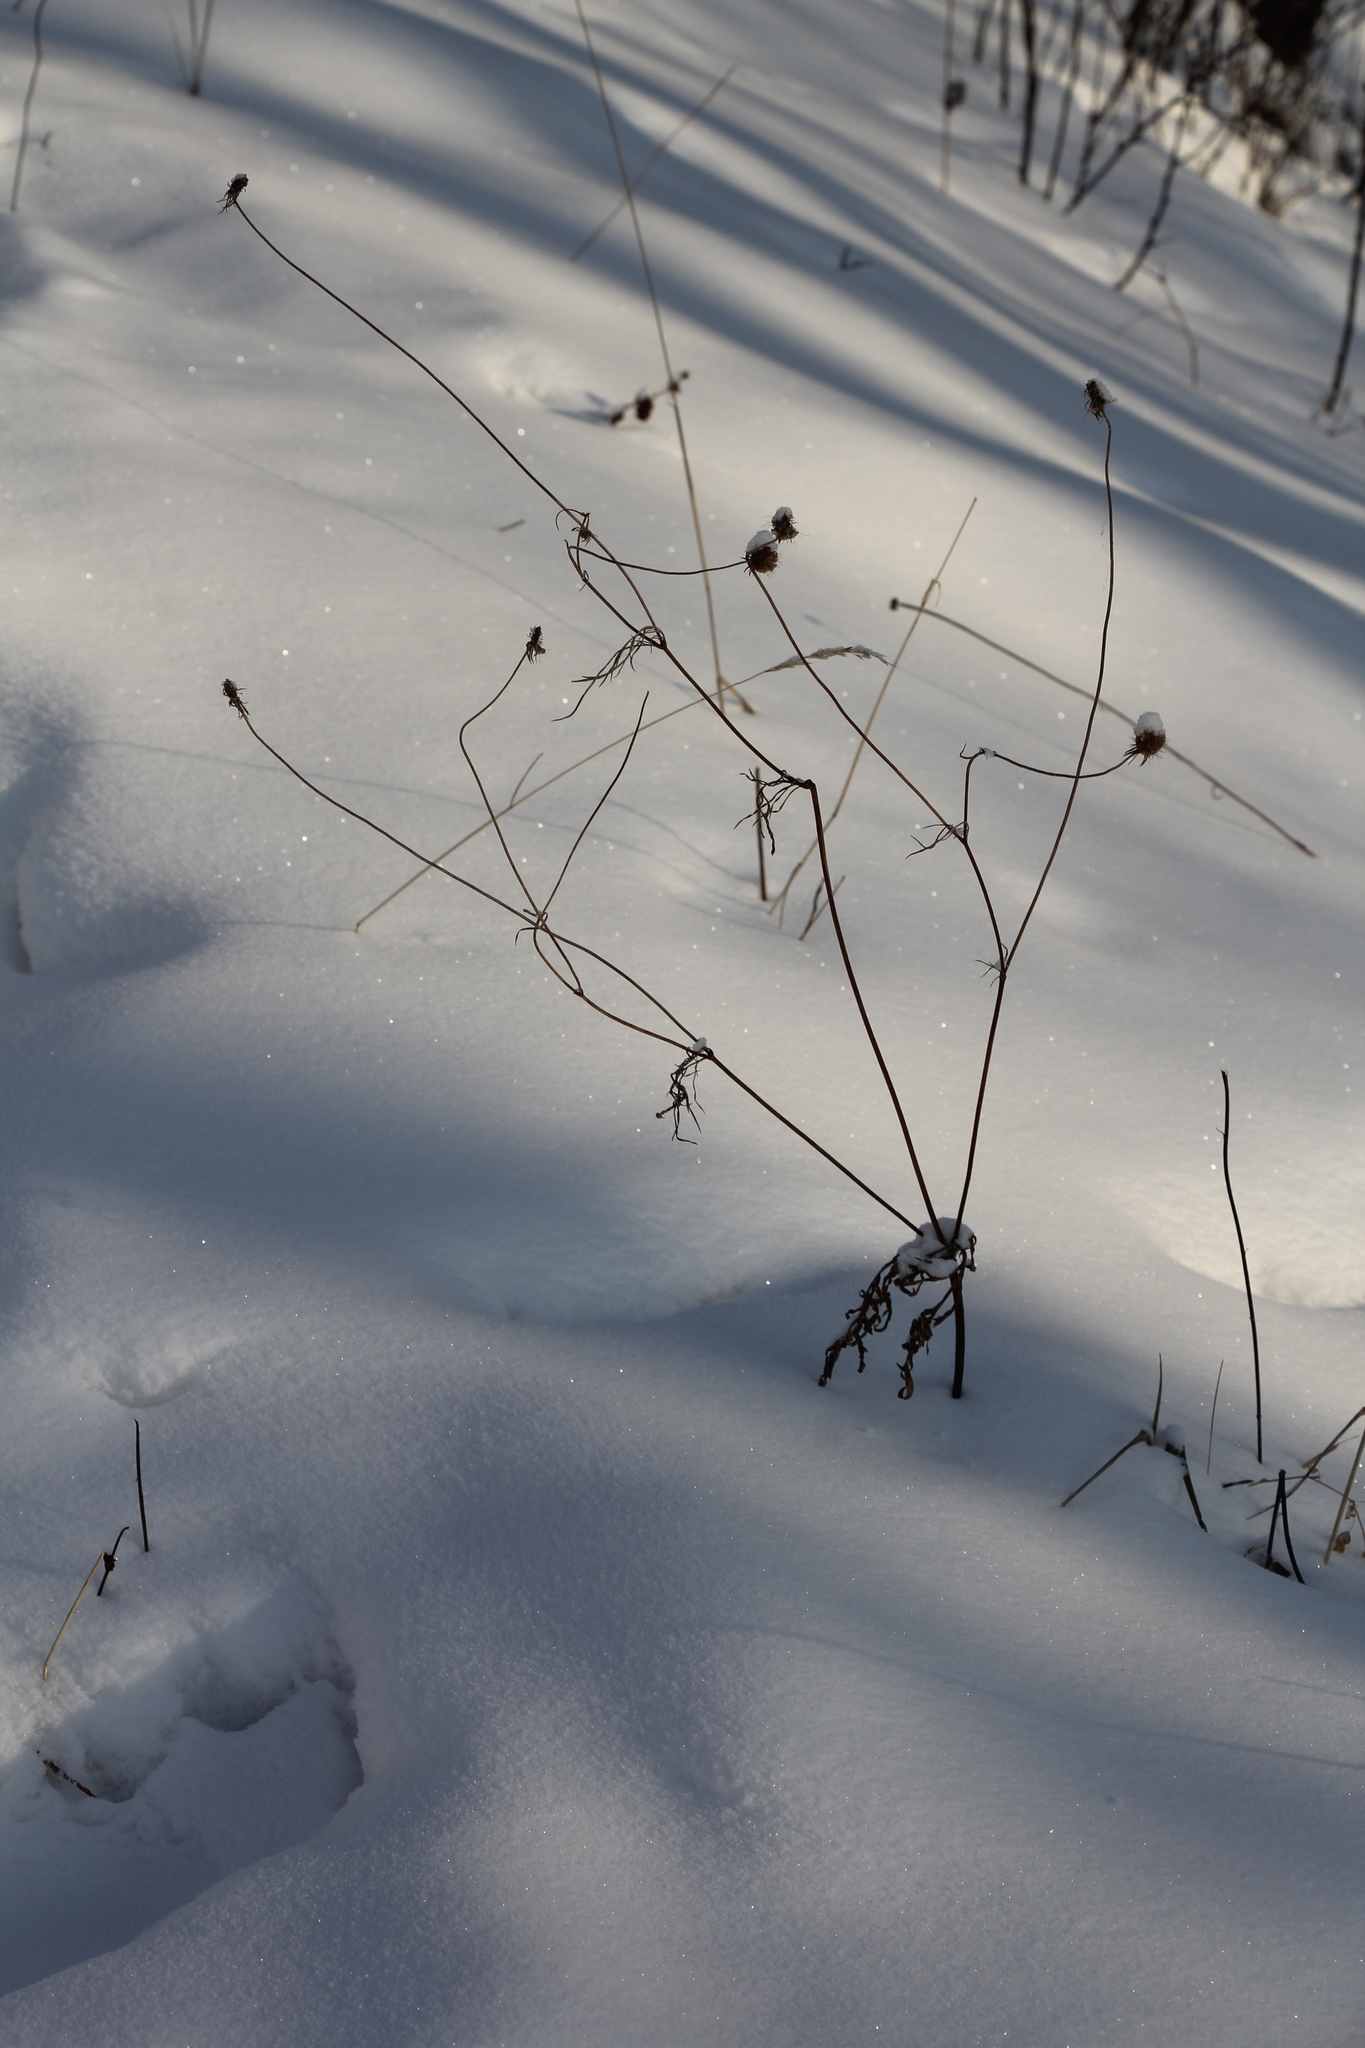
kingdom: Plantae
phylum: Tracheophyta
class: Magnoliopsida
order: Dipsacales
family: Caprifoliaceae
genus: Scabiosa
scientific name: Scabiosa ochroleuca
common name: Cream pincushions
